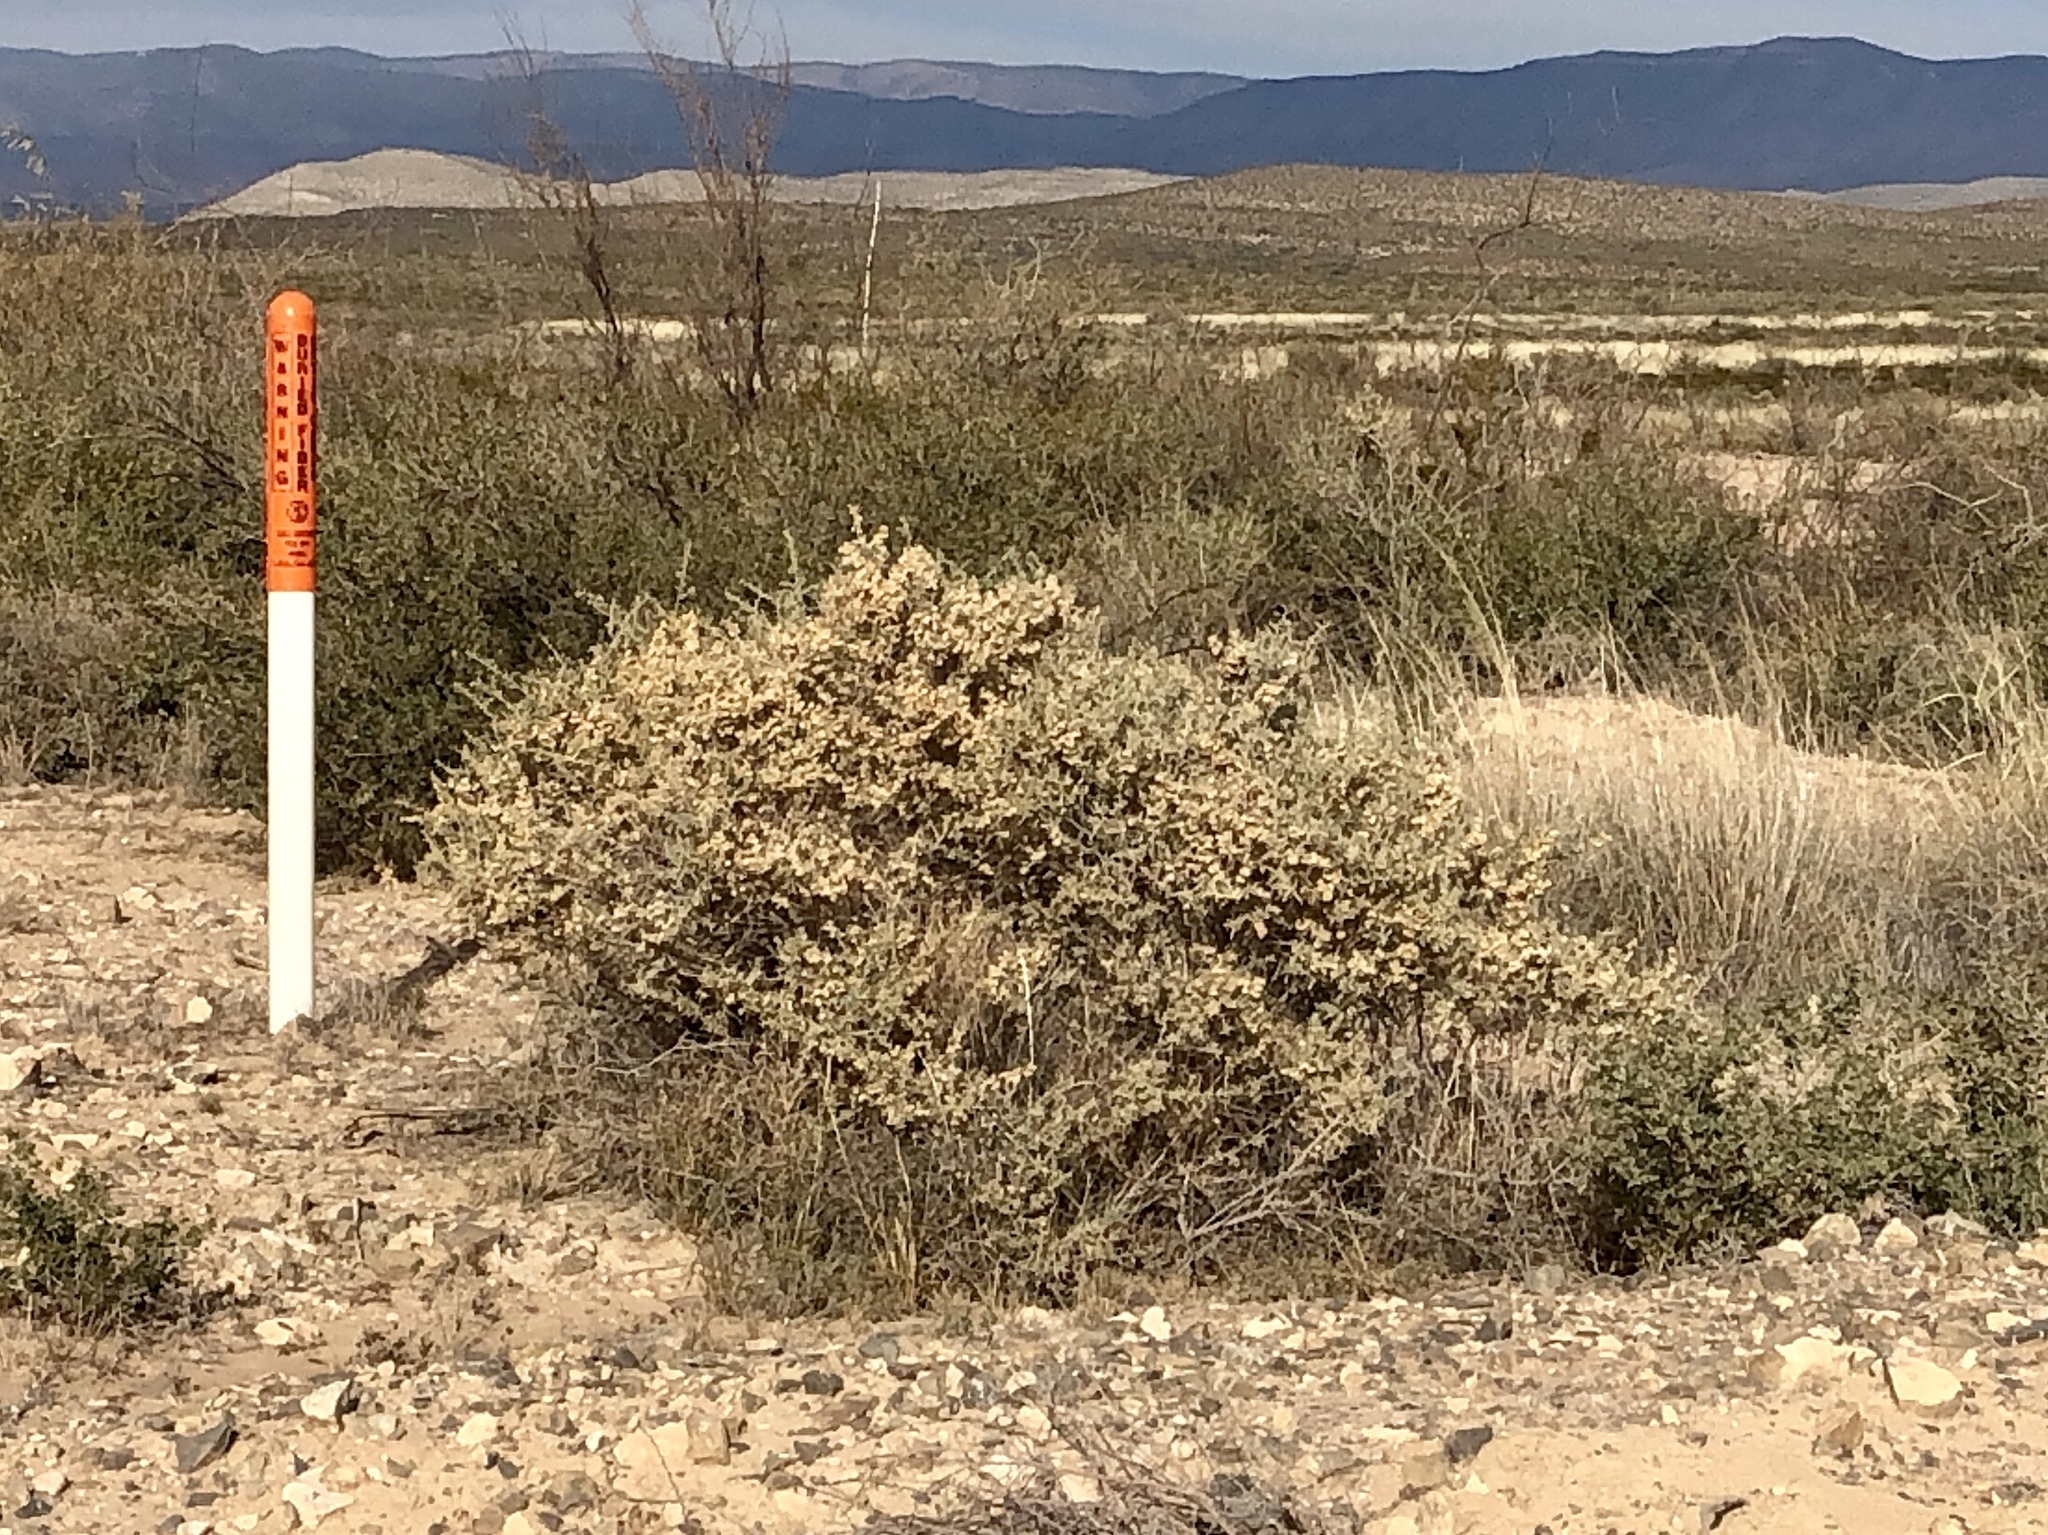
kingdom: Plantae
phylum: Tracheophyta
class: Magnoliopsida
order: Caryophyllales
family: Amaranthaceae
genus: Atriplex
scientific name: Atriplex canescens
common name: Four-wing saltbush
